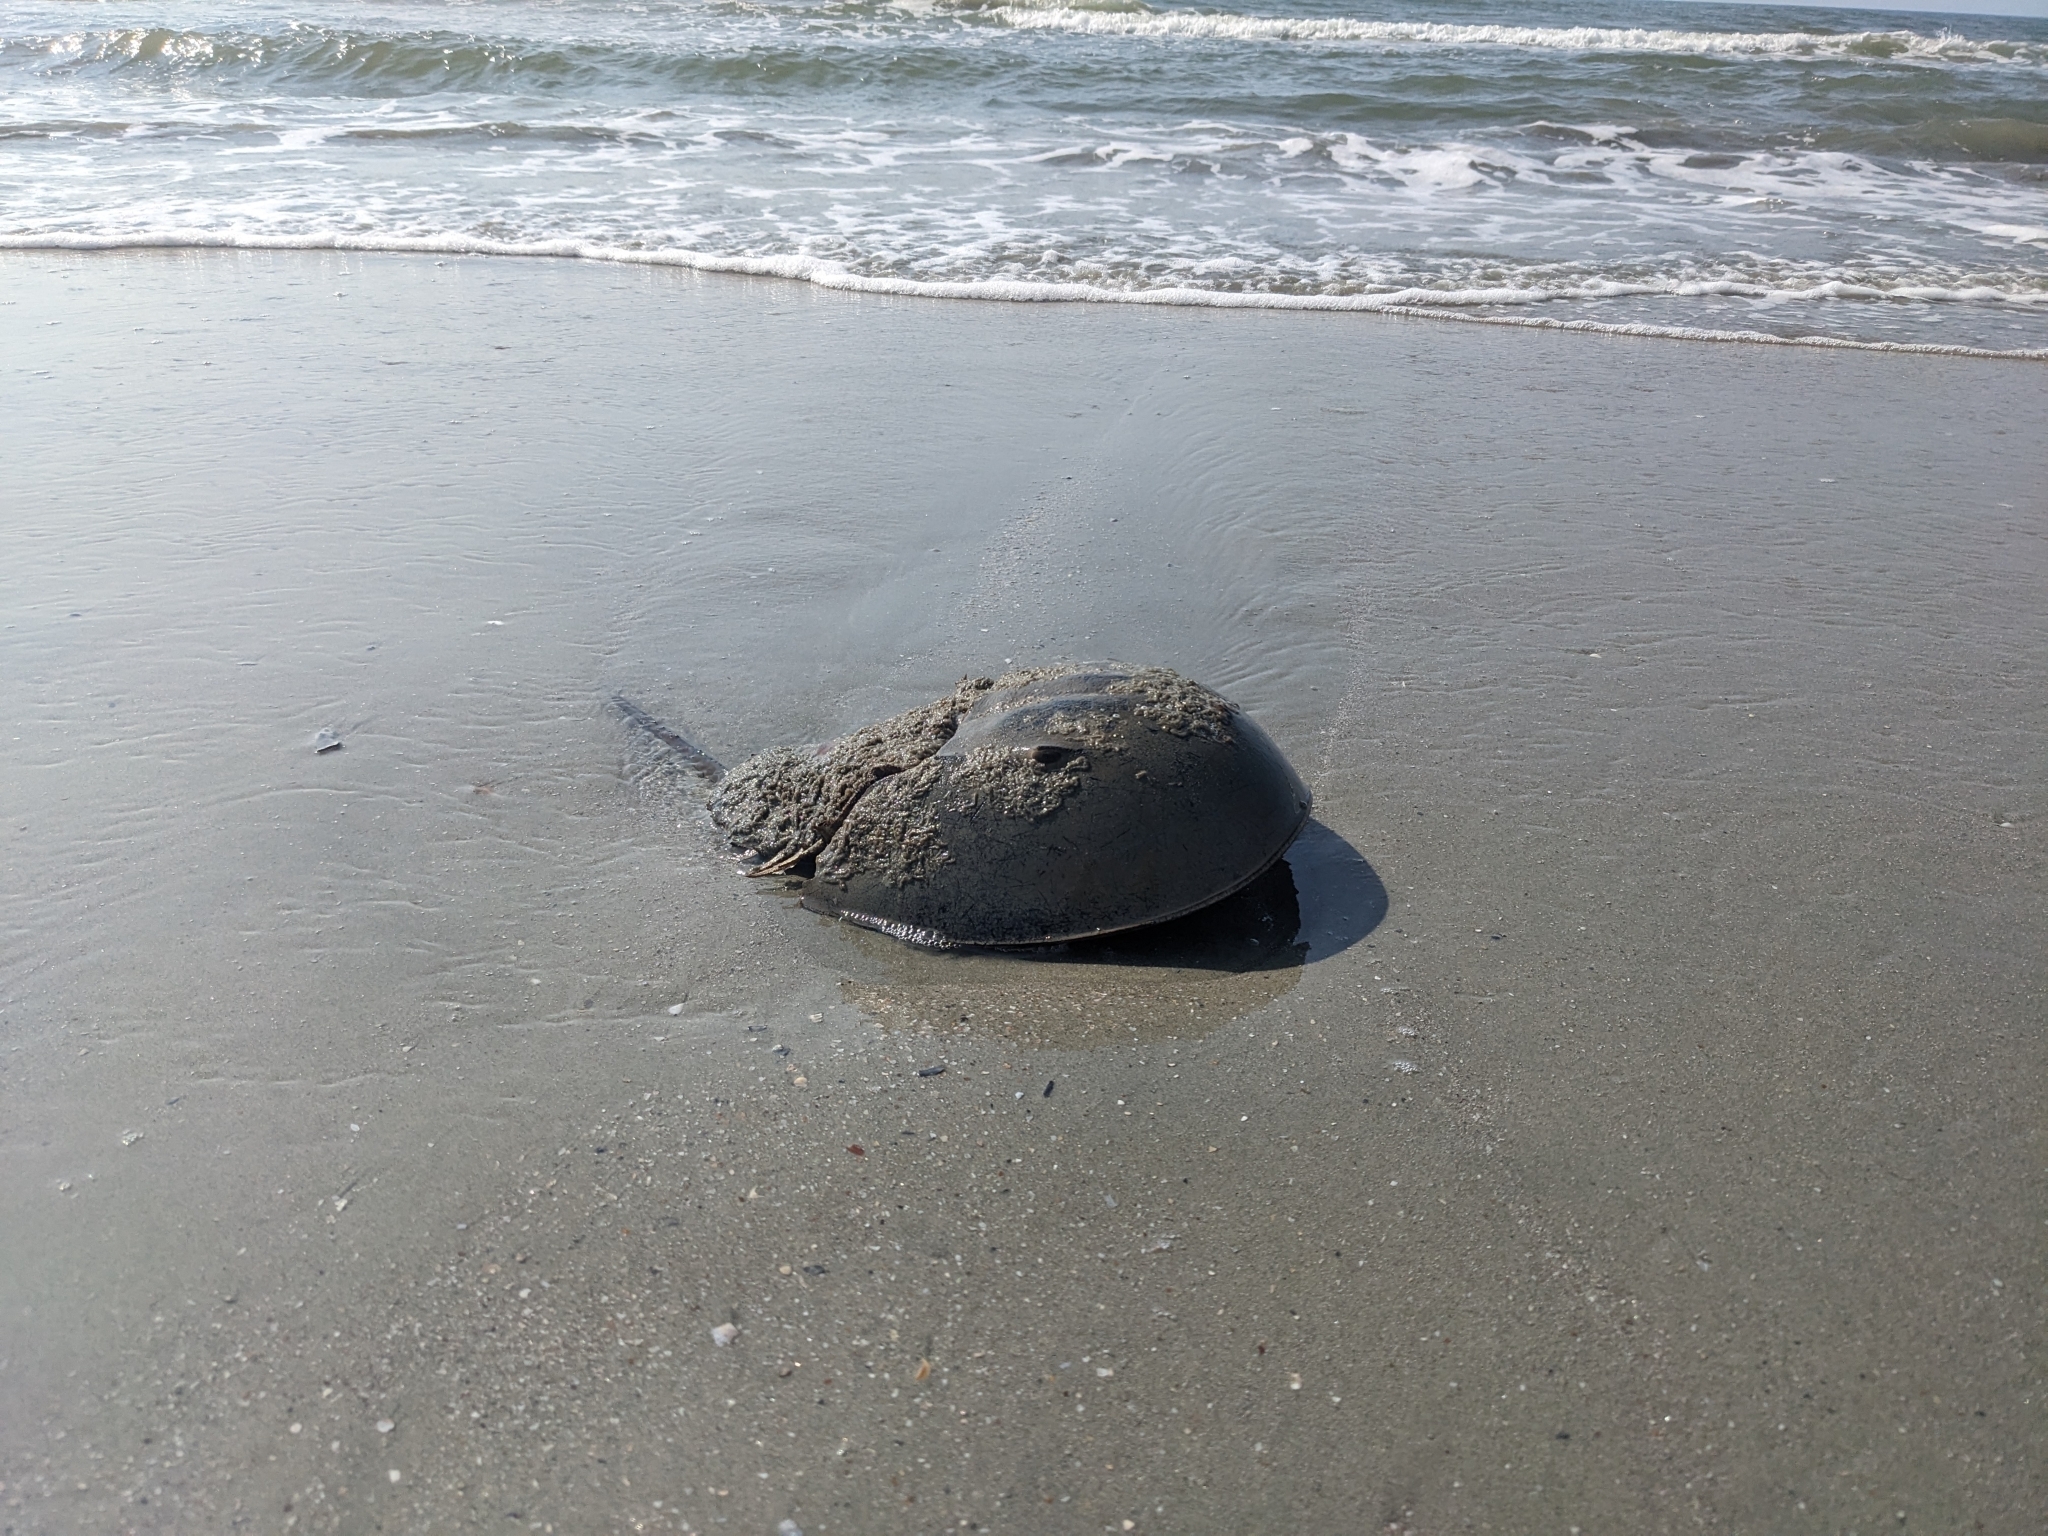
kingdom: Animalia
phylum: Arthropoda
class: Merostomata
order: Xiphosurida
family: Limulidae
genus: Limulus
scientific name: Limulus polyphemus
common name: Horseshoe crab
